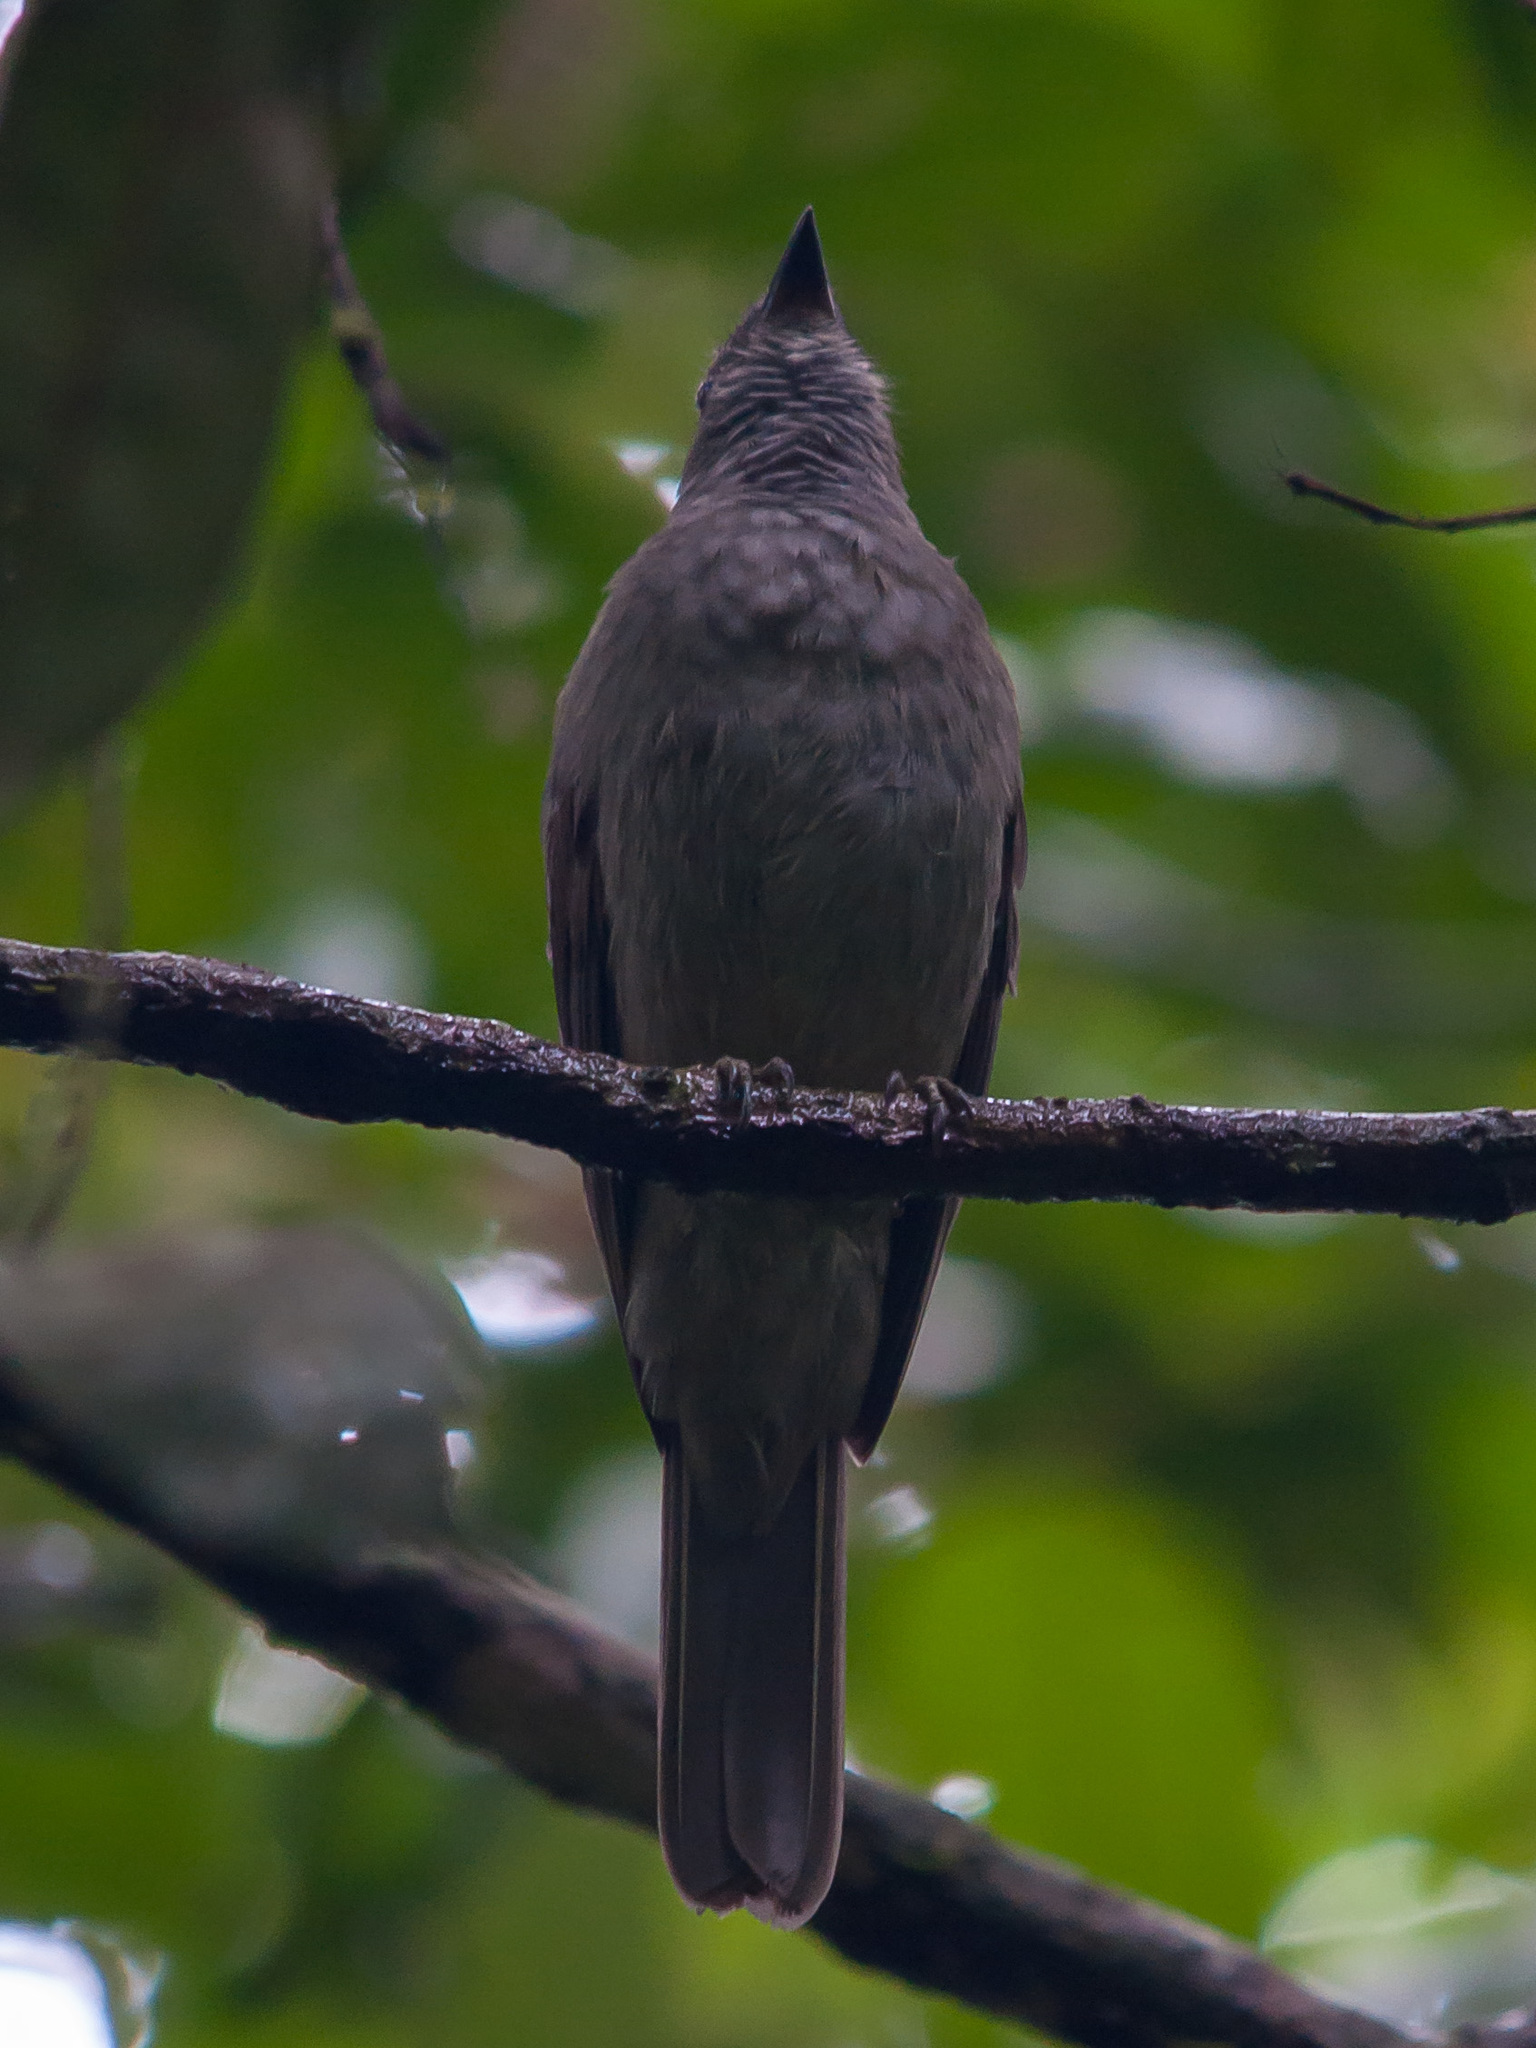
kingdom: Animalia
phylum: Chordata
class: Aves
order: Passeriformes
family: Cotingidae
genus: Lipaugus
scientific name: Lipaugus vociferans
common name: Screaming piha
